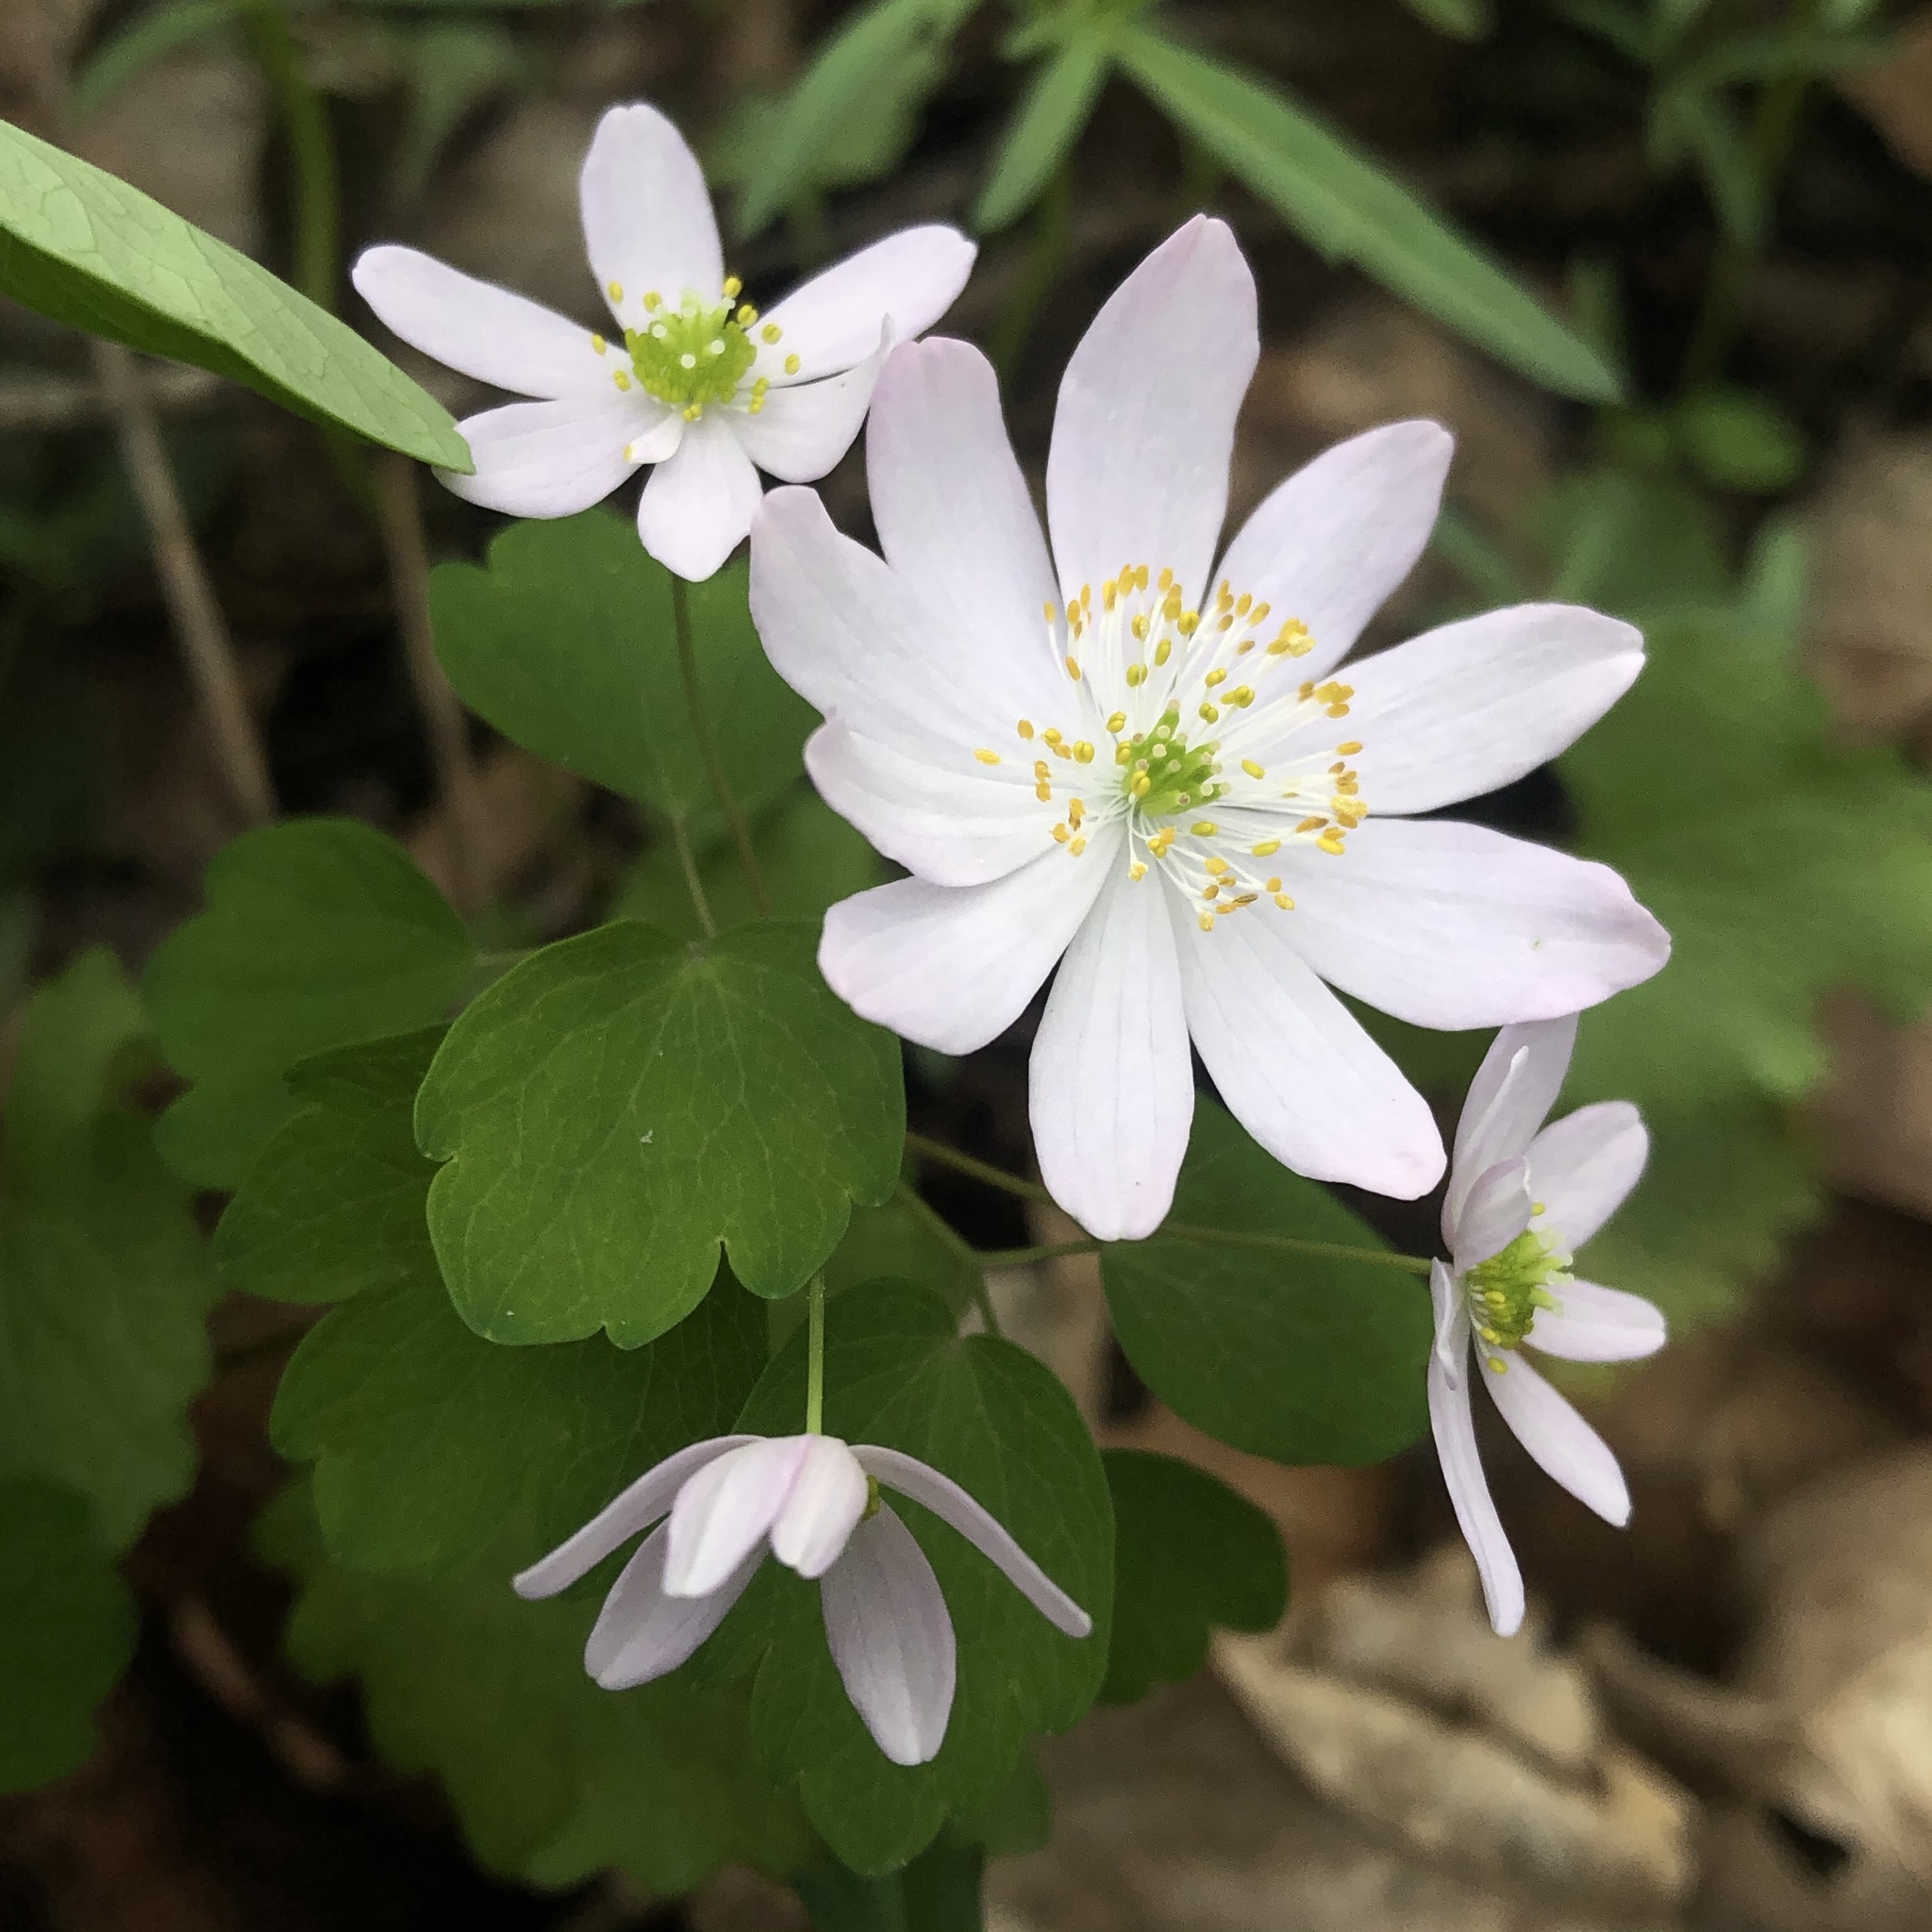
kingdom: Plantae
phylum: Tracheophyta
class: Magnoliopsida
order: Ranunculales
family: Ranunculaceae
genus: Thalictrum
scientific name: Thalictrum thalictroides
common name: Rue-anemone
